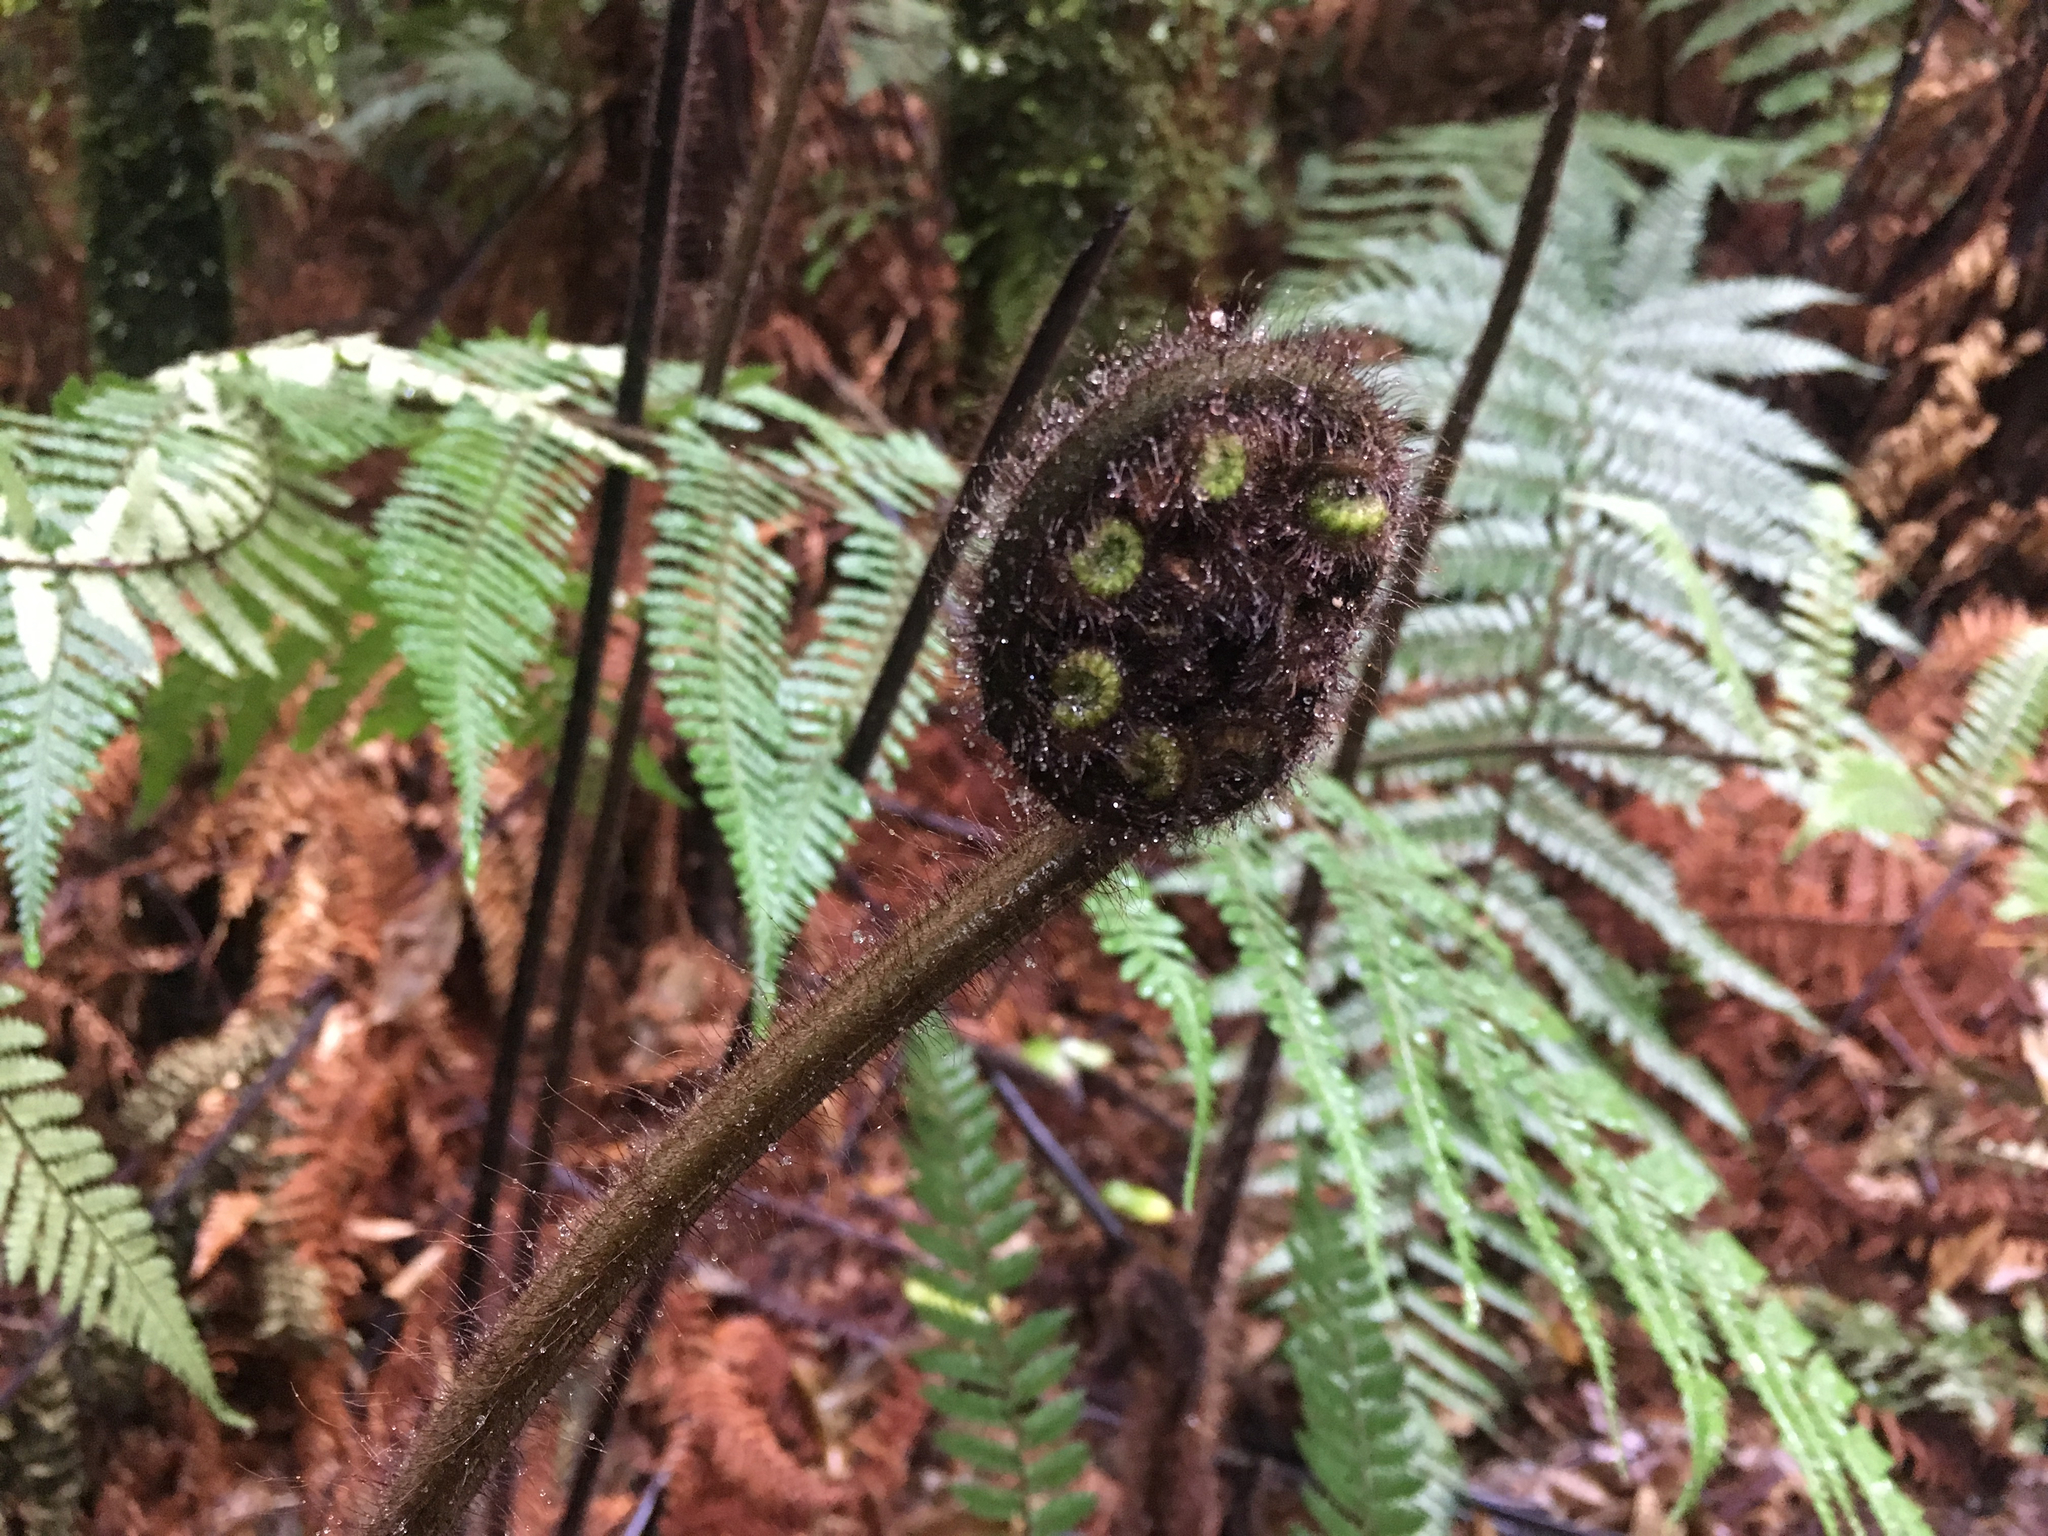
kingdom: Plantae
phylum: Tracheophyta
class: Polypodiopsida
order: Cyatheales
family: Dicksoniaceae
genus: Dicksonia
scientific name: Dicksonia squarrosa
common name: Hard treefern
